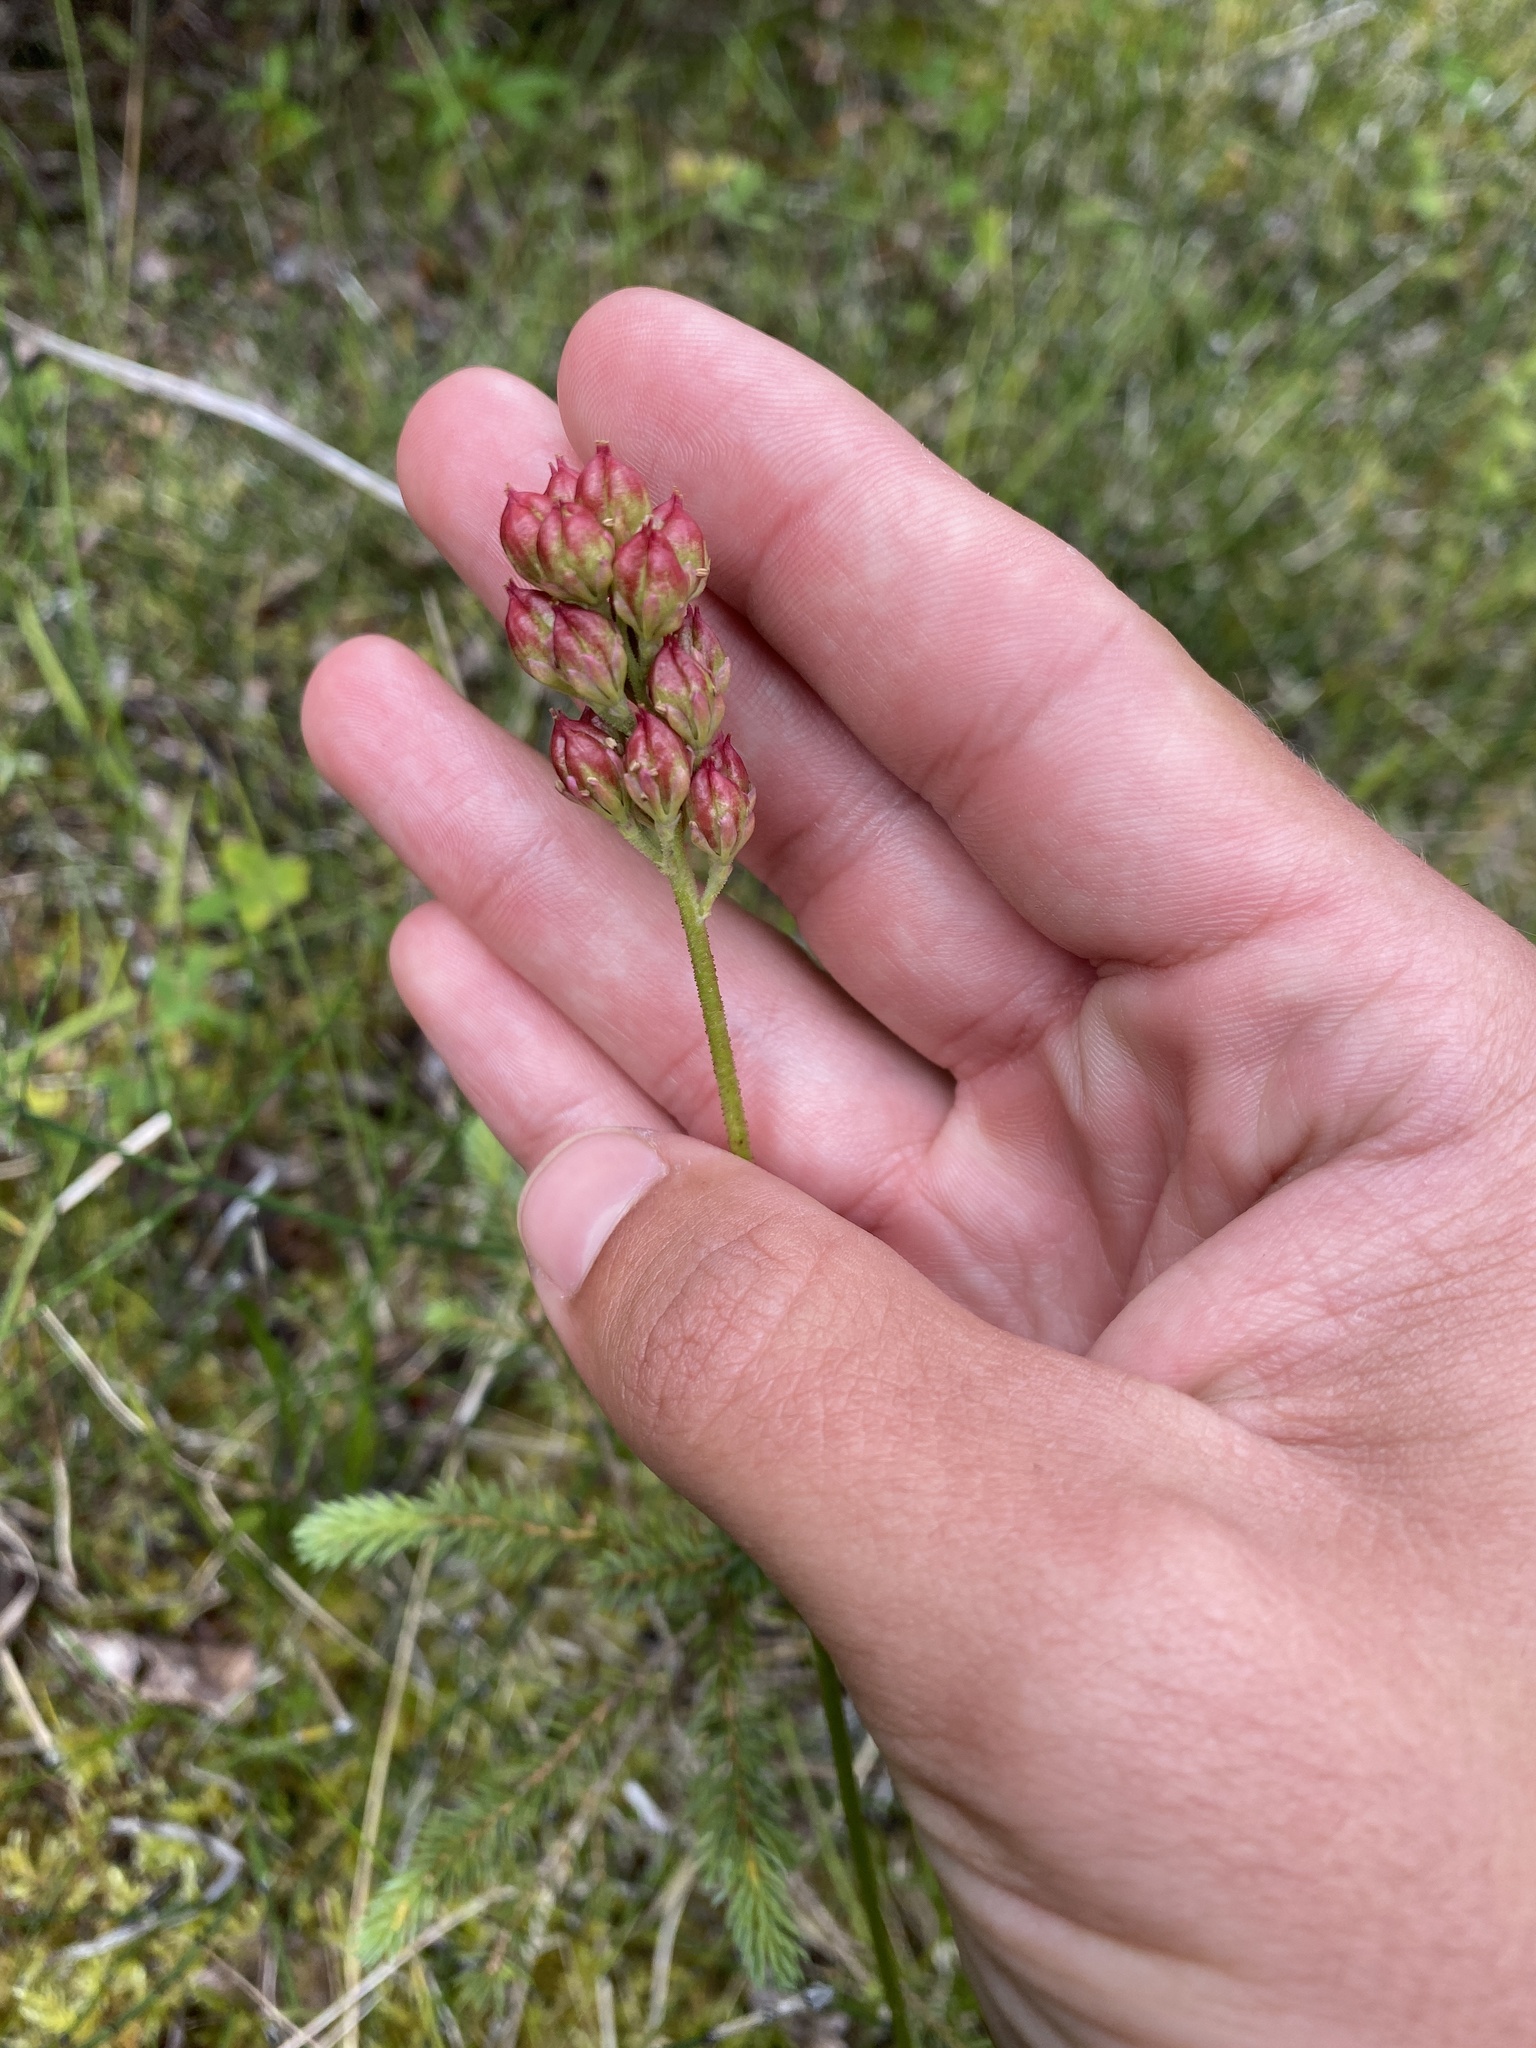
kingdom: Plantae
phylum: Tracheophyta
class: Liliopsida
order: Alismatales
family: Tofieldiaceae
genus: Triantha
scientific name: Triantha glutinosa
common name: Glutinous tofieldia
